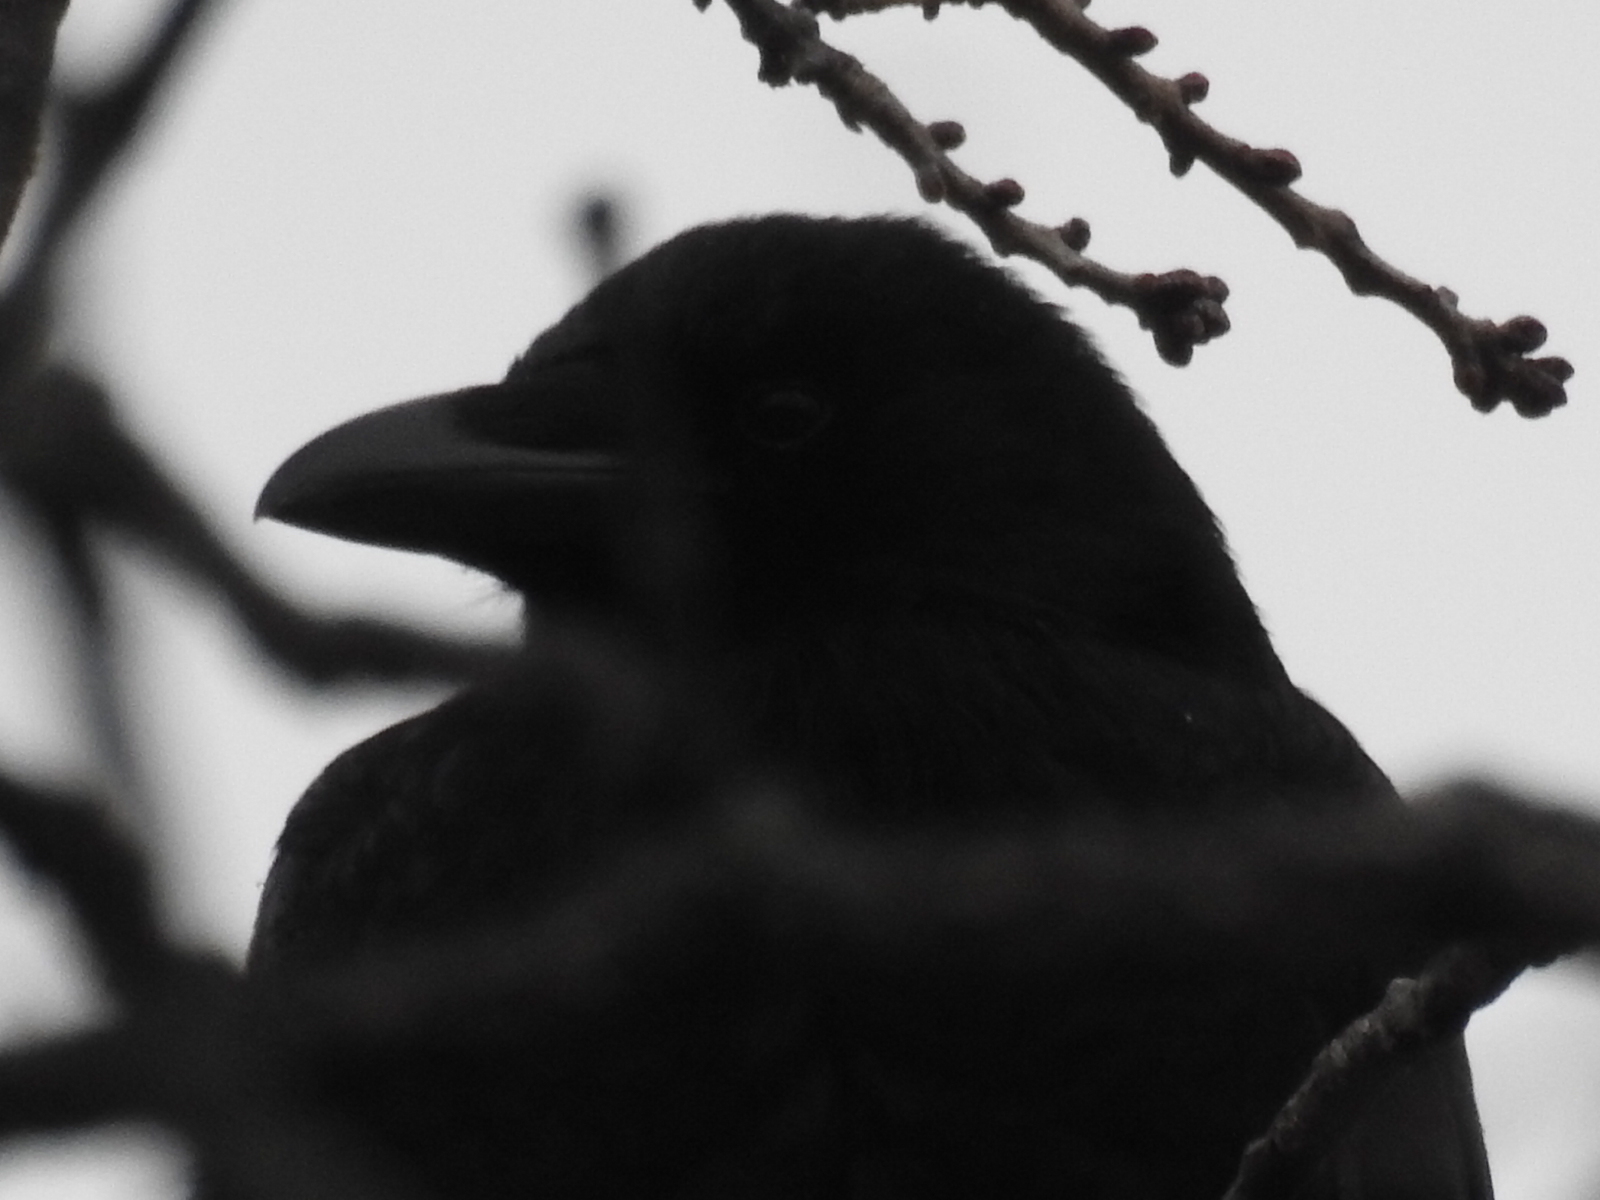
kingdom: Animalia
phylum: Chordata
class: Aves
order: Passeriformes
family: Corvidae
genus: Corvus
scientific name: Corvus brachyrhynchos
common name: American crow
